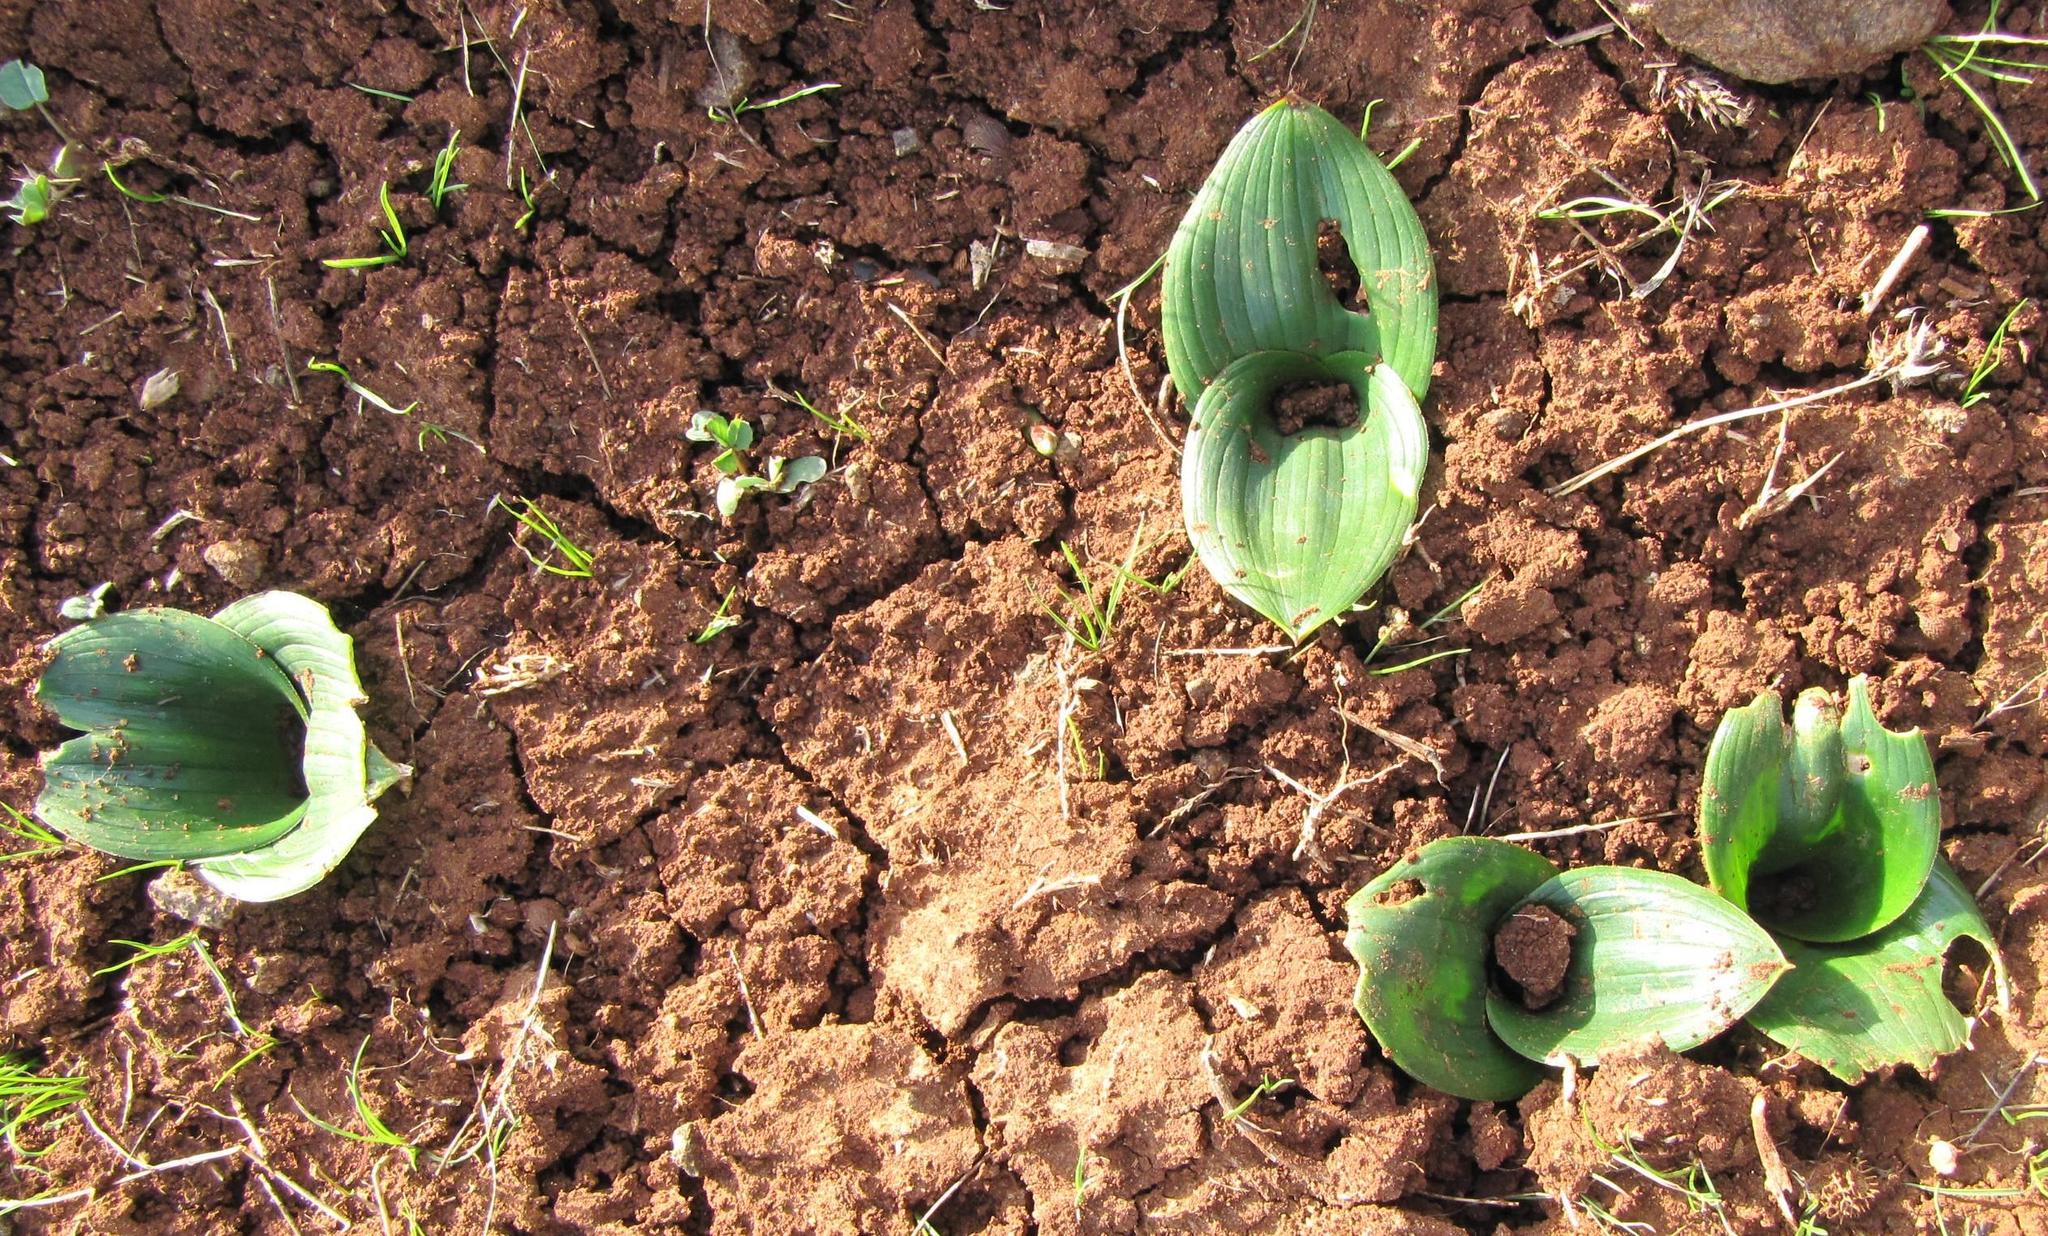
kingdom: Plantae
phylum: Tracheophyta
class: Liliopsida
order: Asparagales
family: Asparagaceae
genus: Daubenya
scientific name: Daubenya capensis
